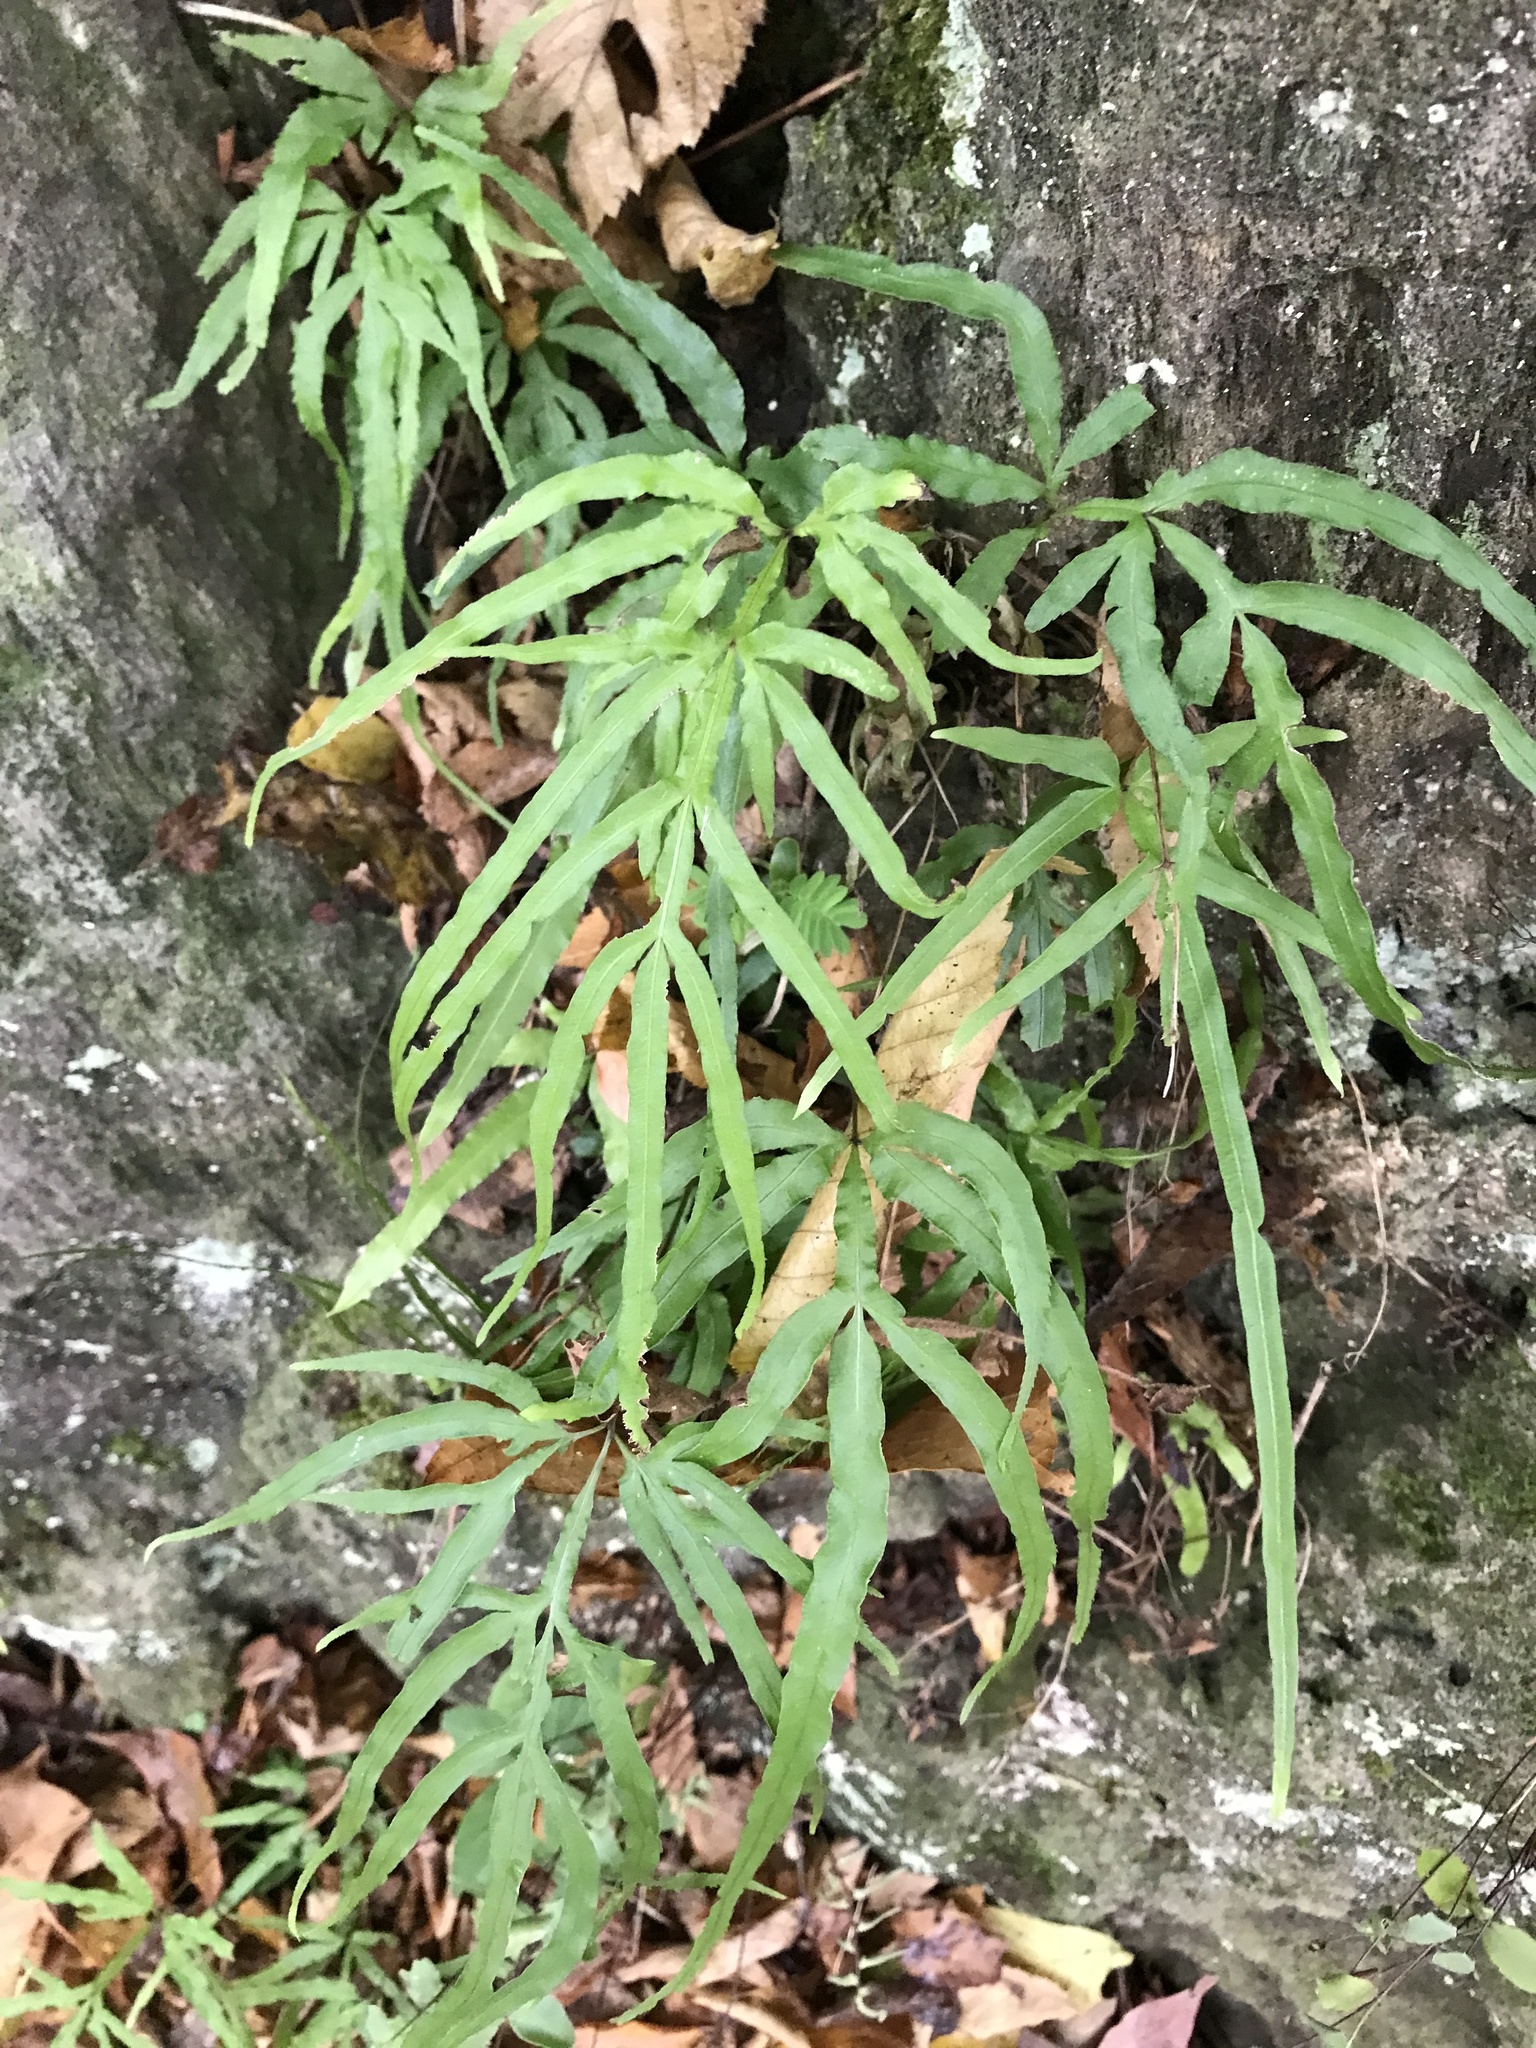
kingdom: Plantae
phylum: Tracheophyta
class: Polypodiopsida
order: Polypodiales
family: Pteridaceae
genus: Pteris
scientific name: Pteris multifida
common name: Spider brake
